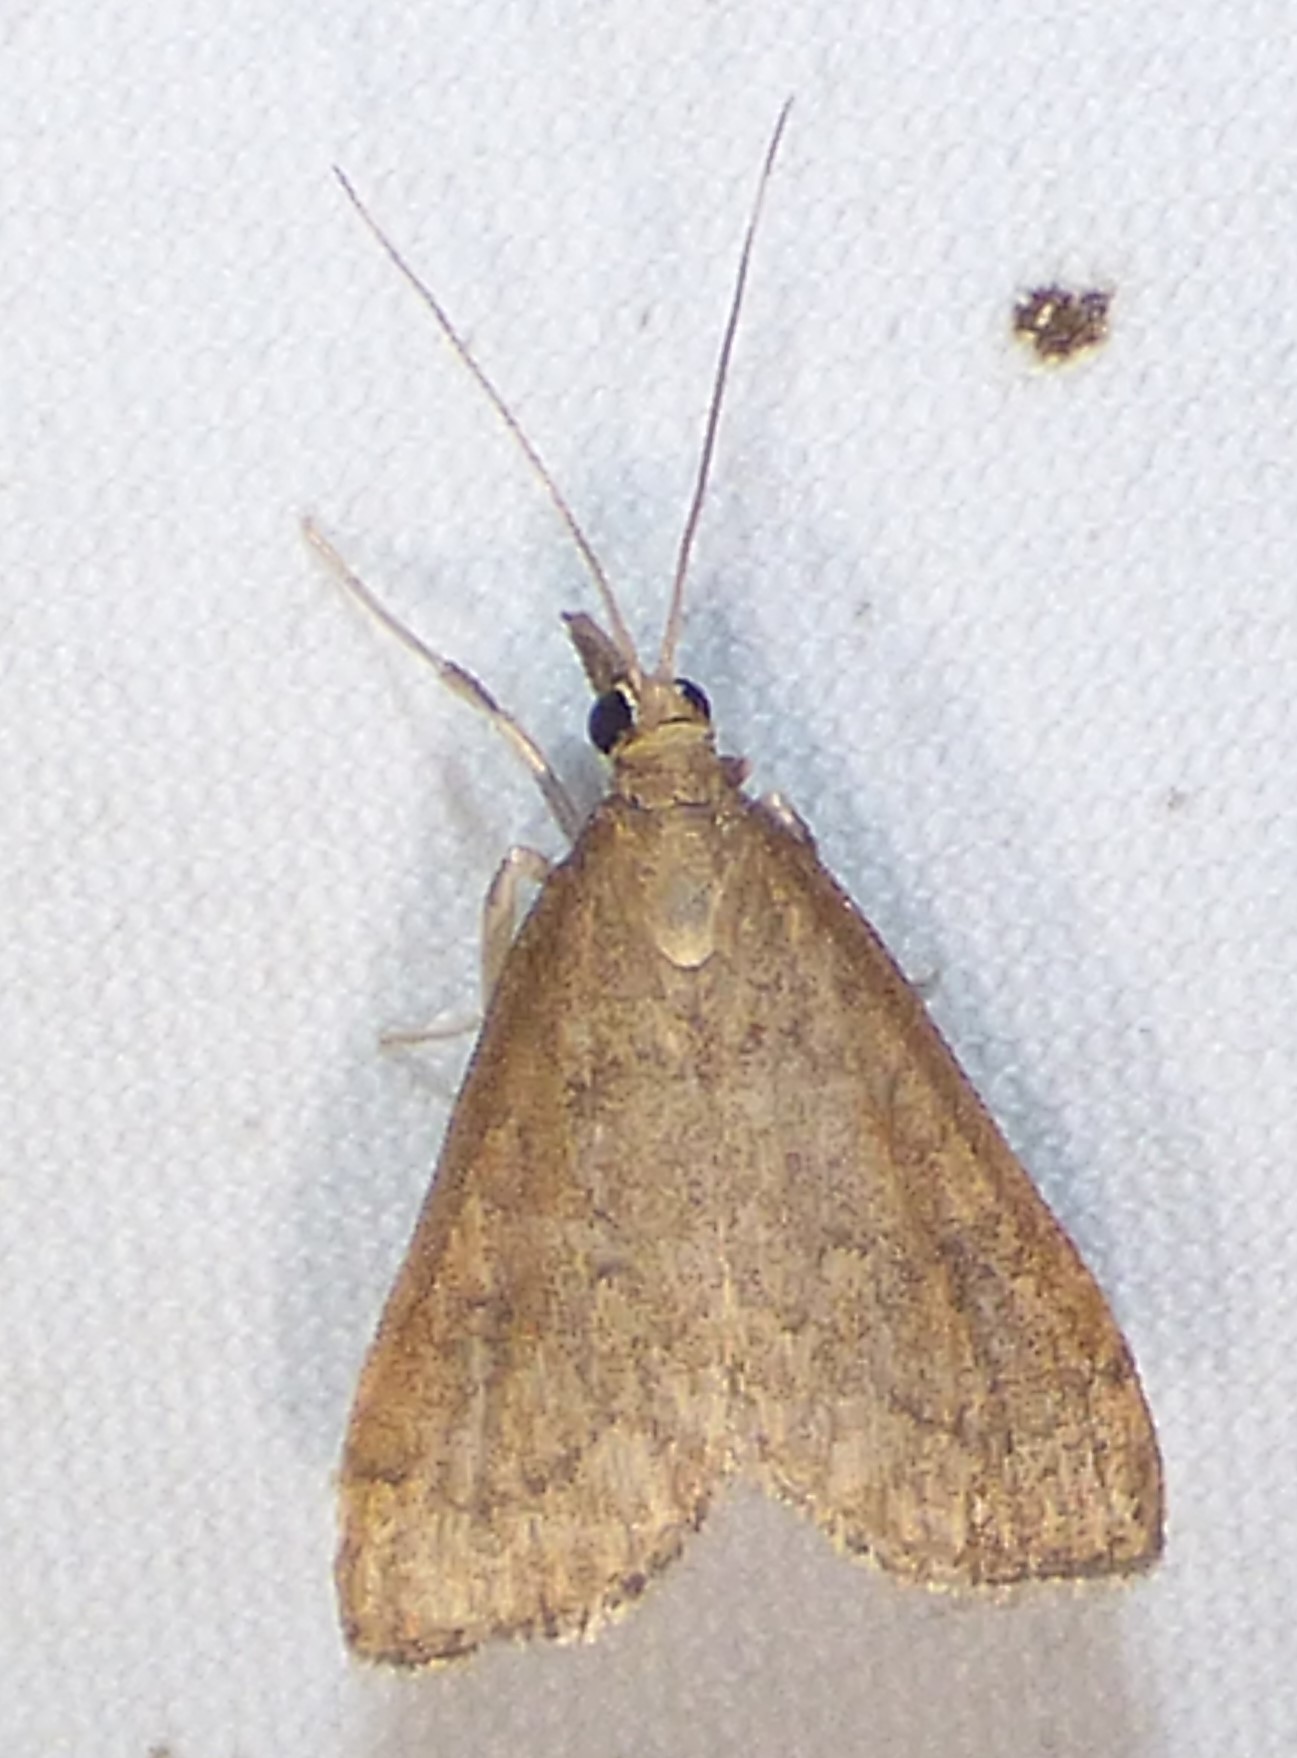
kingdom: Animalia
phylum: Arthropoda
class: Insecta
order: Lepidoptera
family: Crambidae
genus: Udea
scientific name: Udea rubigalis
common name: Celery leaftier moth
